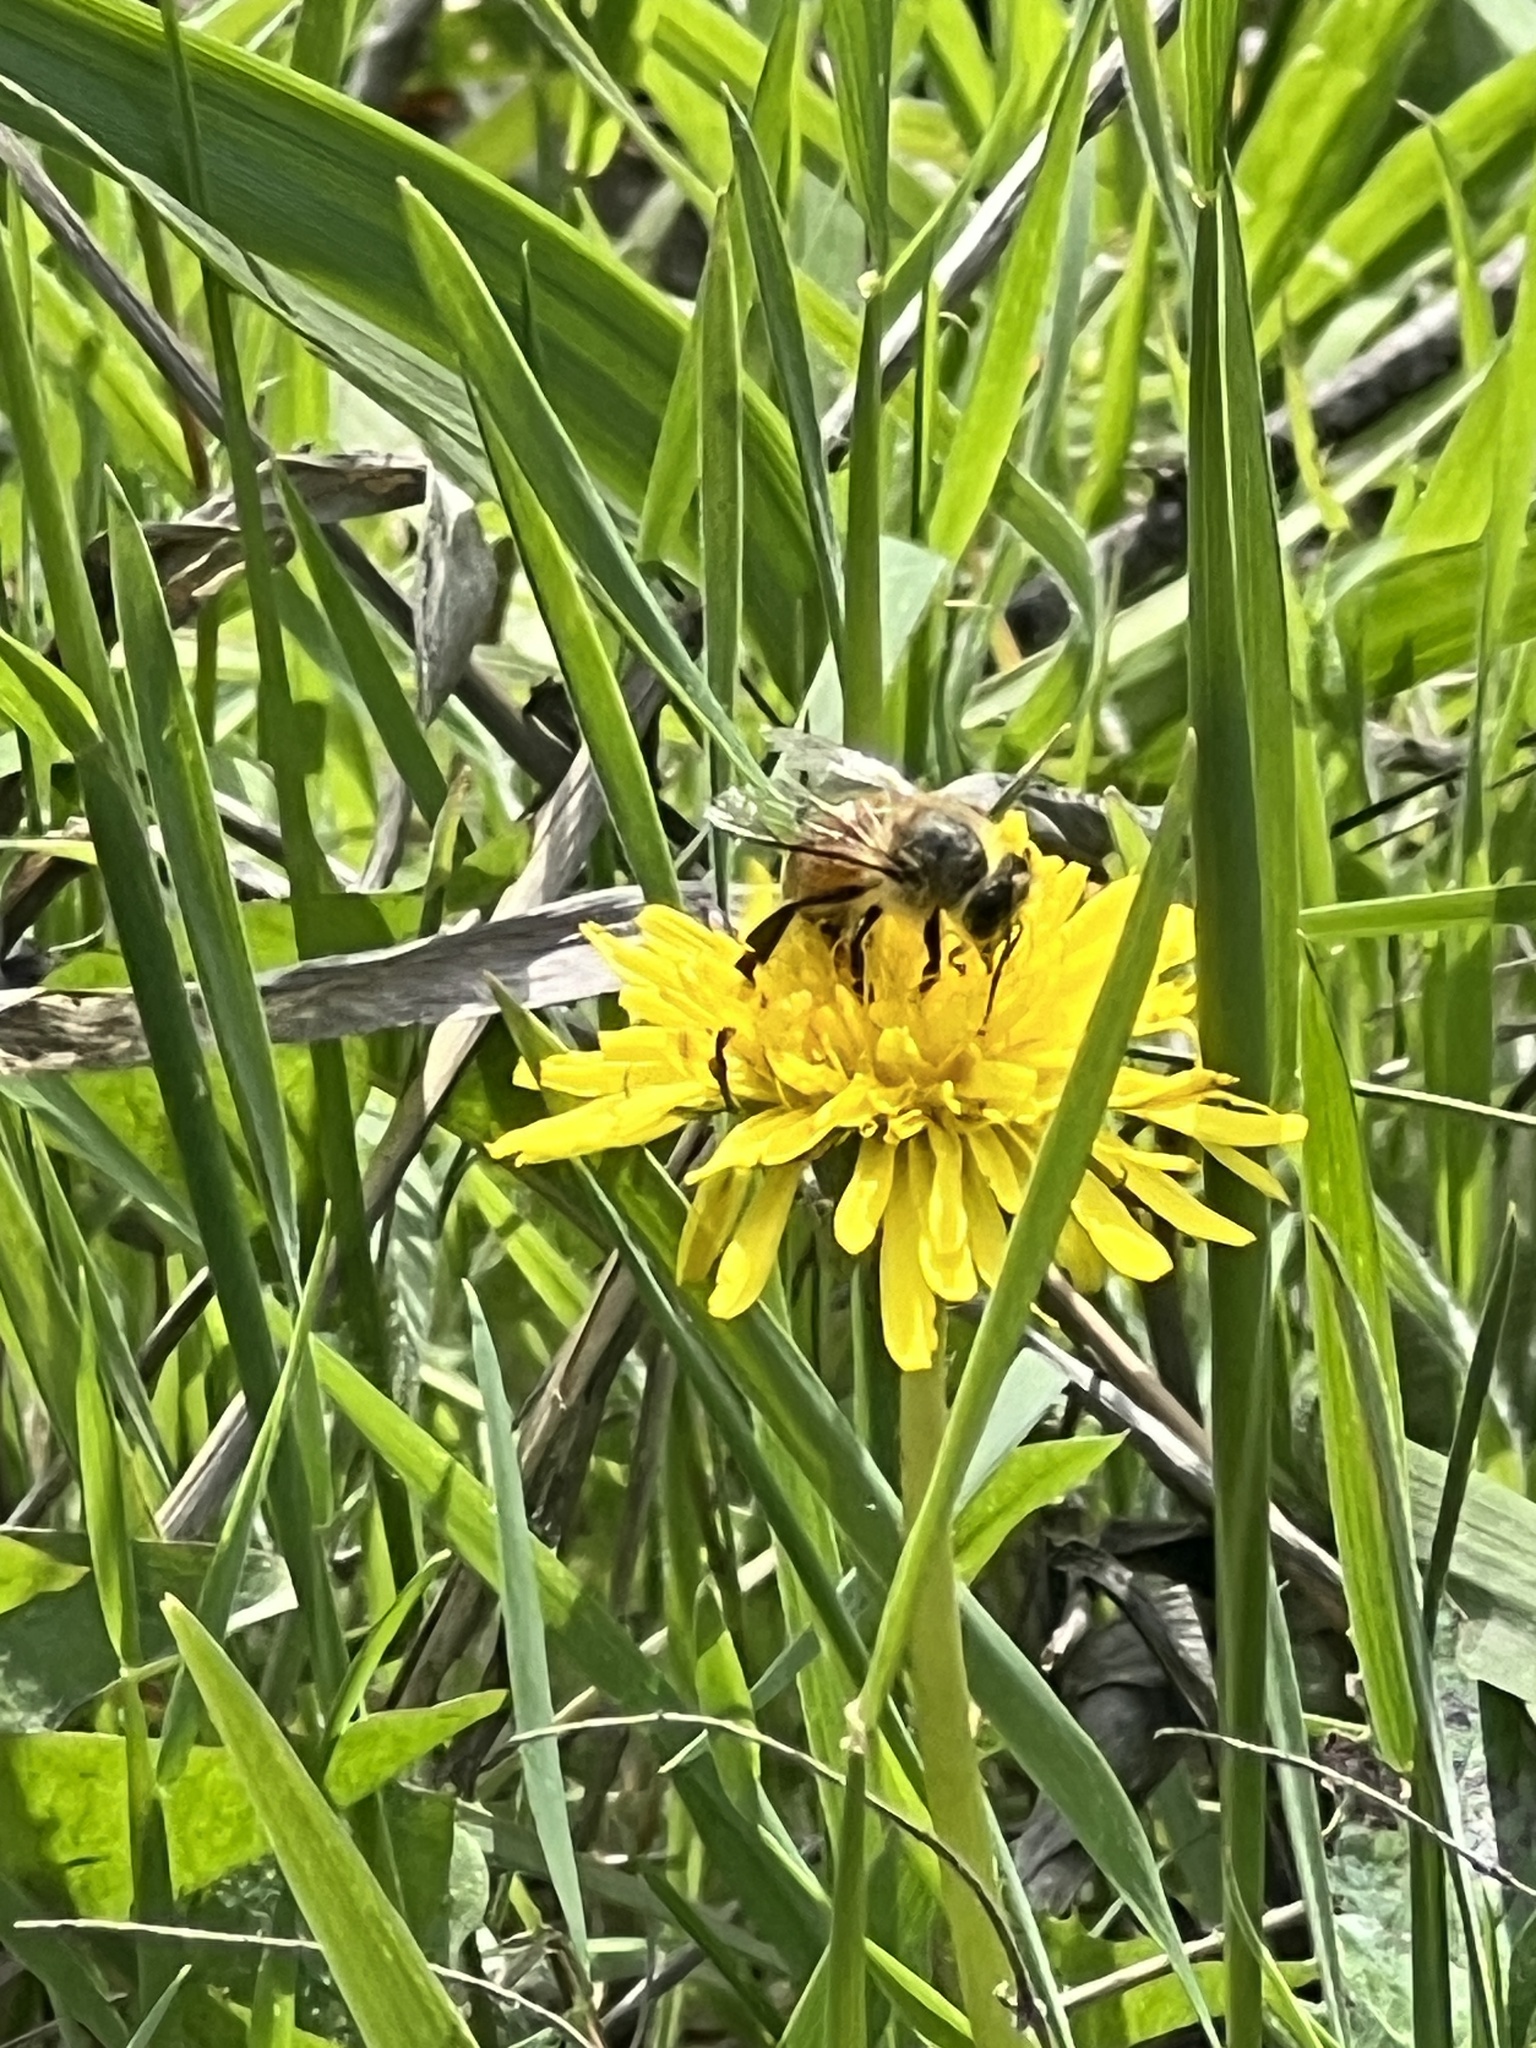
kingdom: Animalia
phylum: Arthropoda
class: Insecta
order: Hymenoptera
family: Apidae
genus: Apis
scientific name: Apis mellifera
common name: Honey bee
